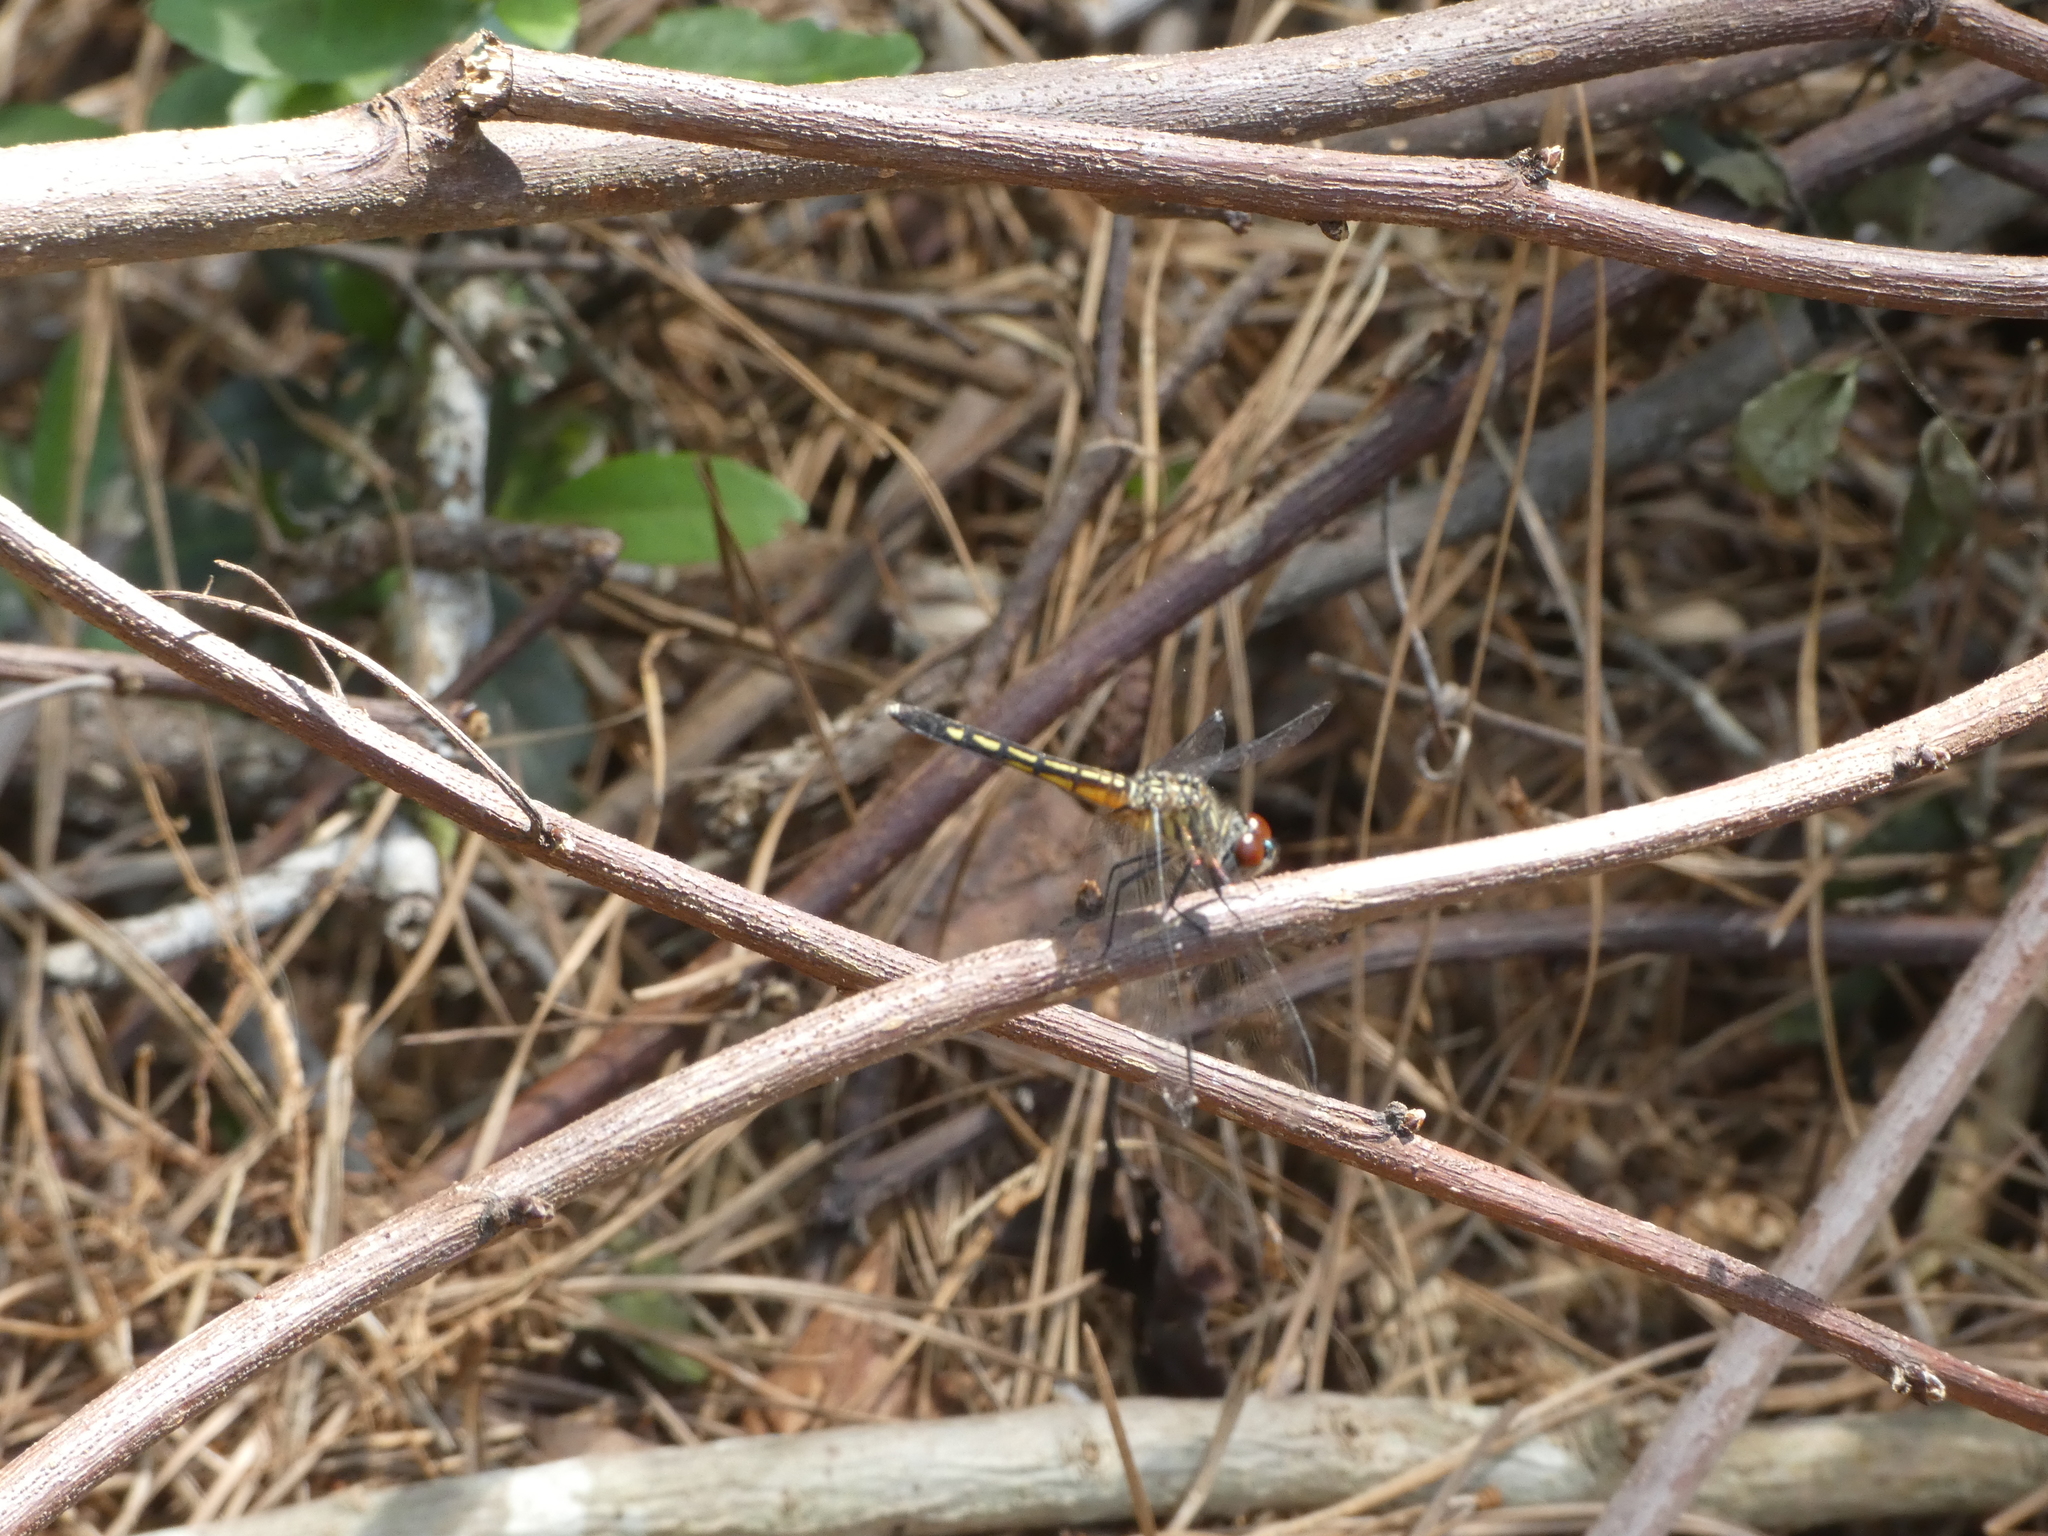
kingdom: Animalia
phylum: Arthropoda
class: Insecta
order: Odonata
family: Libellulidae
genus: Pachydiplax
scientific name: Pachydiplax longipennis
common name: Blue dasher
